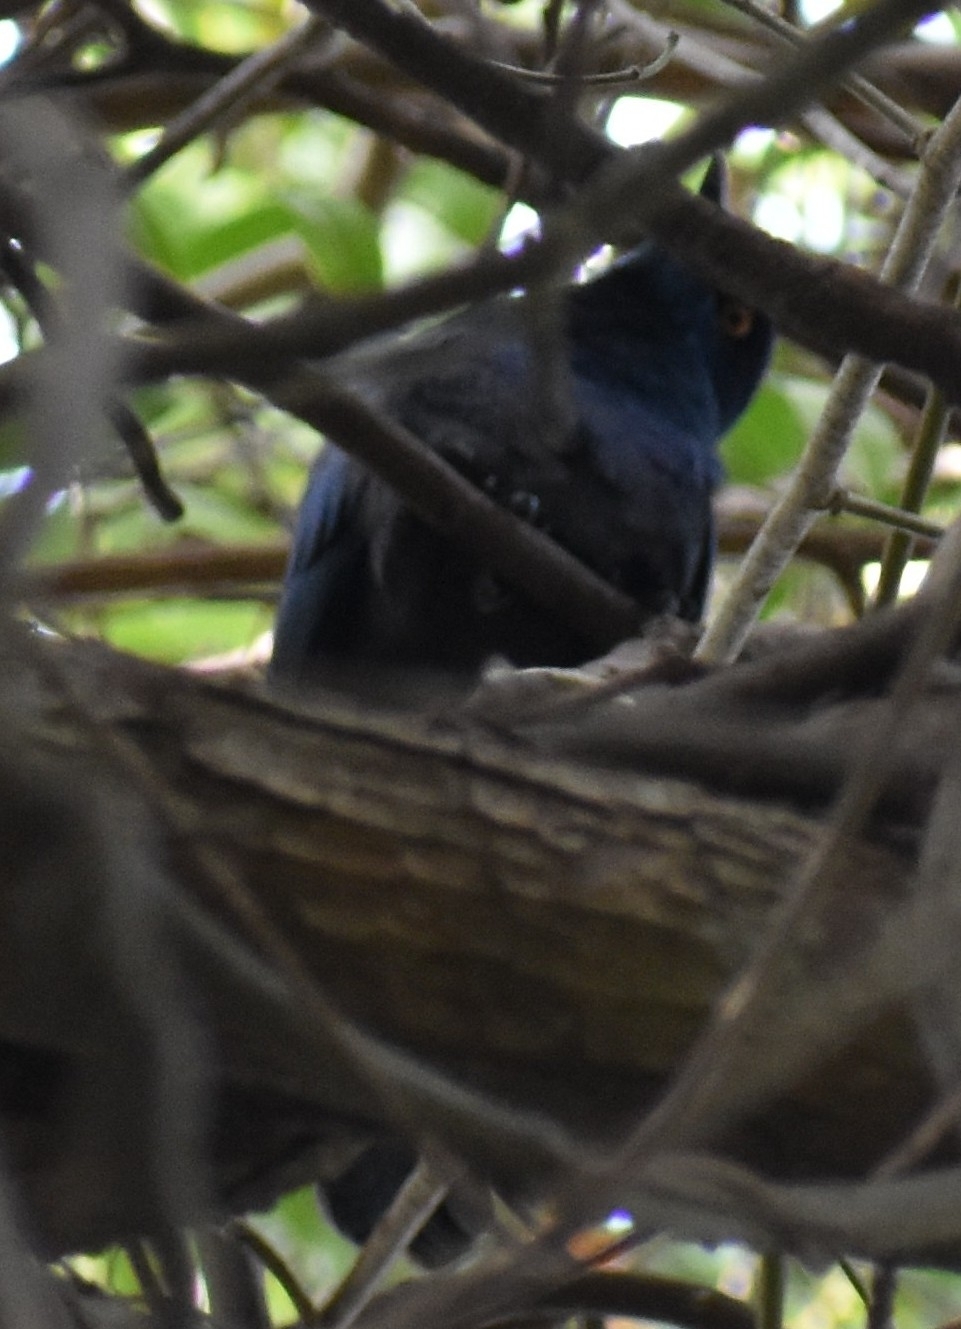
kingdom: Animalia
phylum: Chordata
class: Aves
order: Passeriformes
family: Sturnidae
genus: Notopholia
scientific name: Notopholia corrusca
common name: Black-bellied starling
